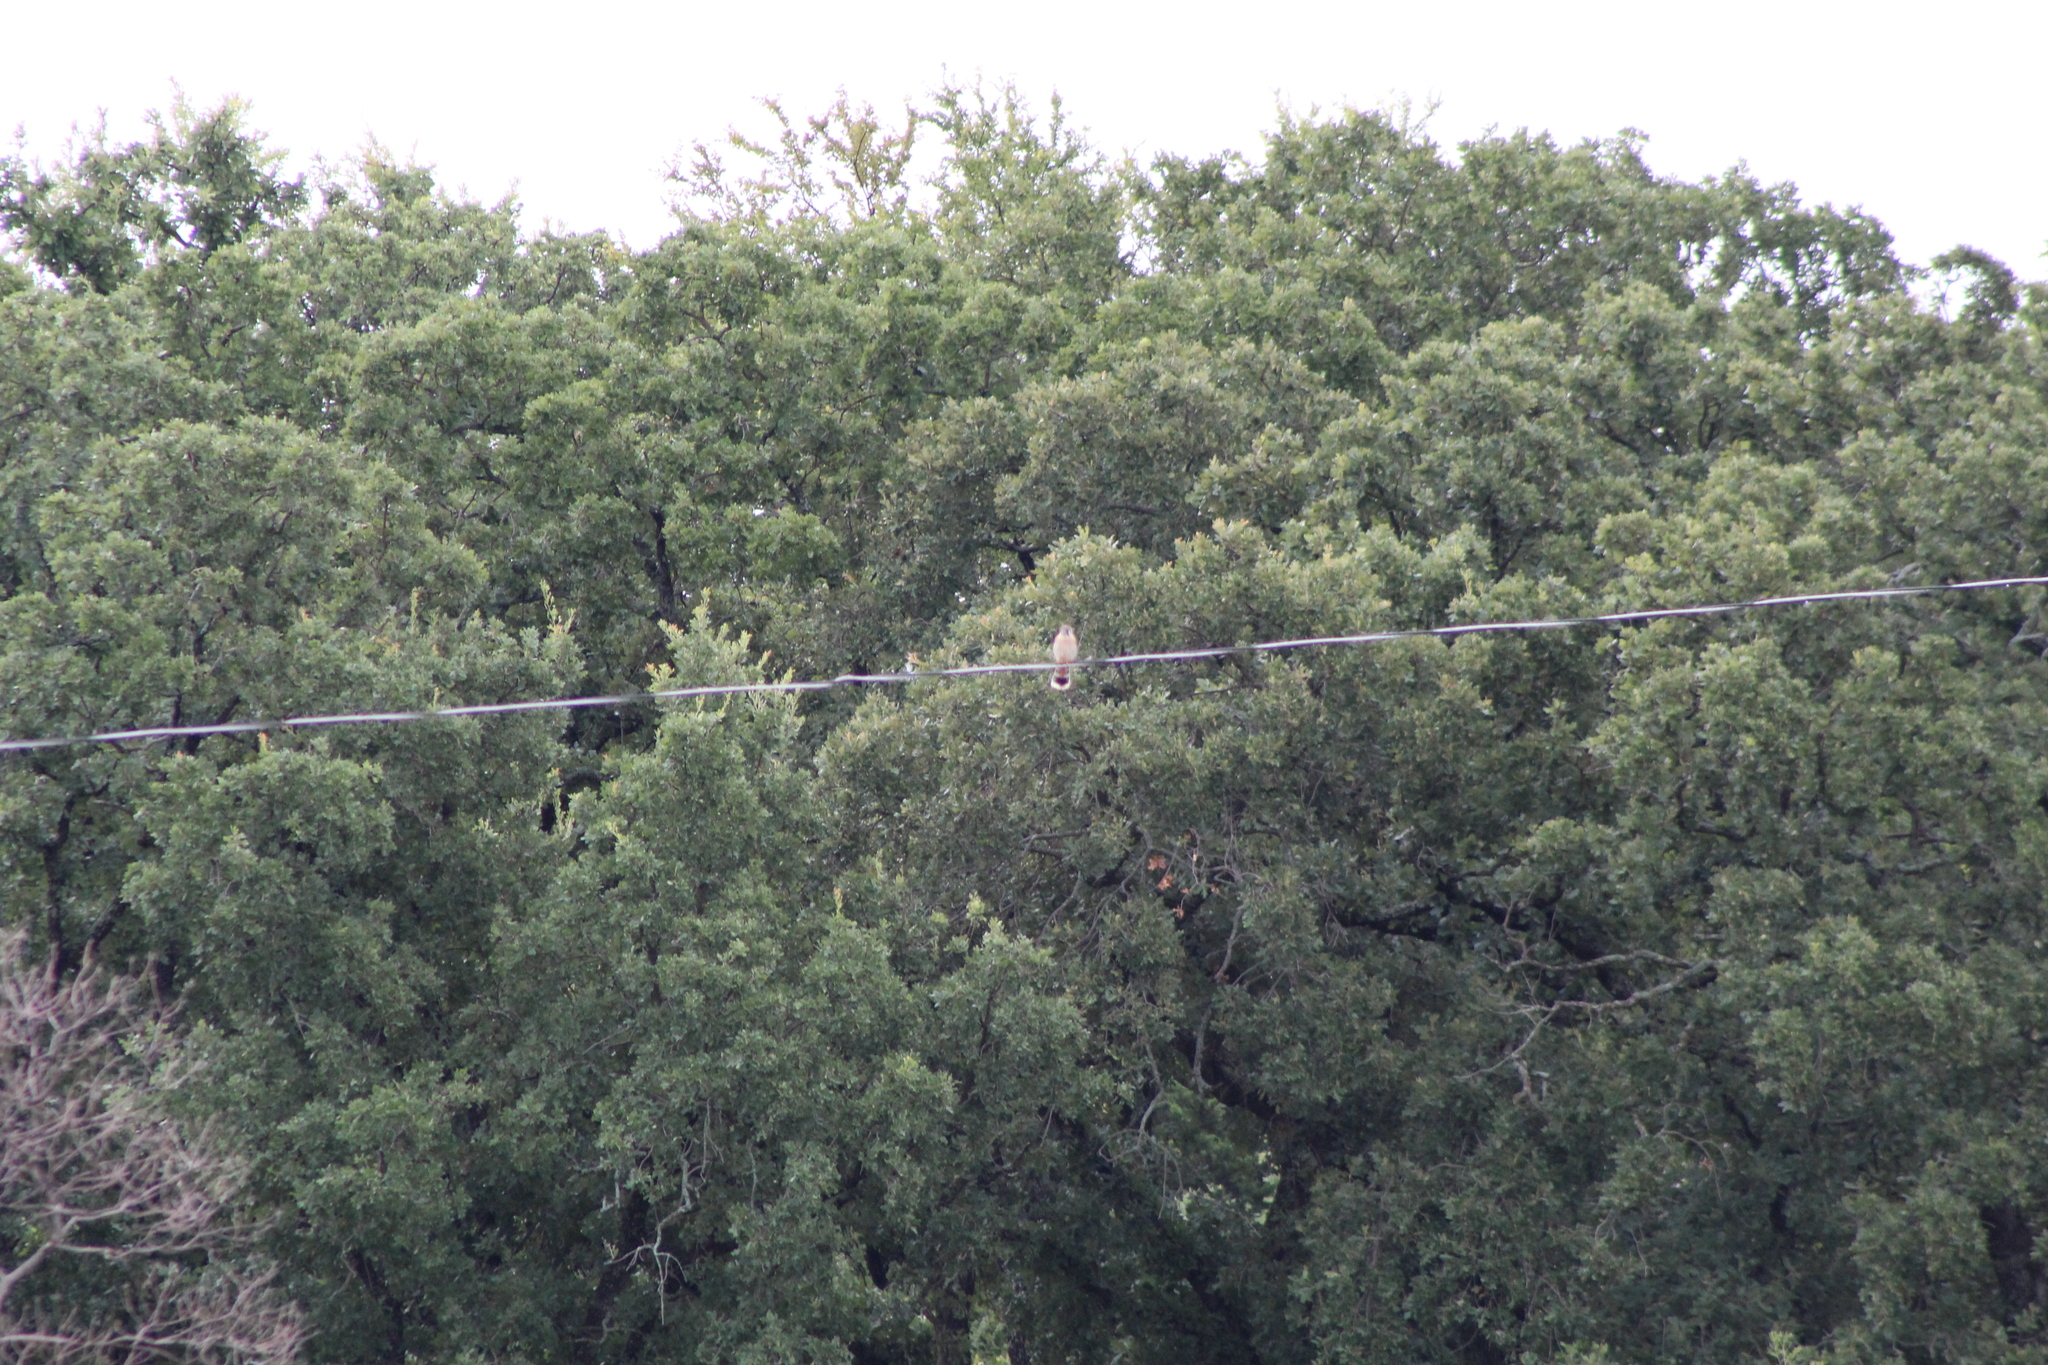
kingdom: Animalia
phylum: Chordata
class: Aves
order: Falconiformes
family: Falconidae
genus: Falco
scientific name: Falco sparverius
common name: American kestrel
